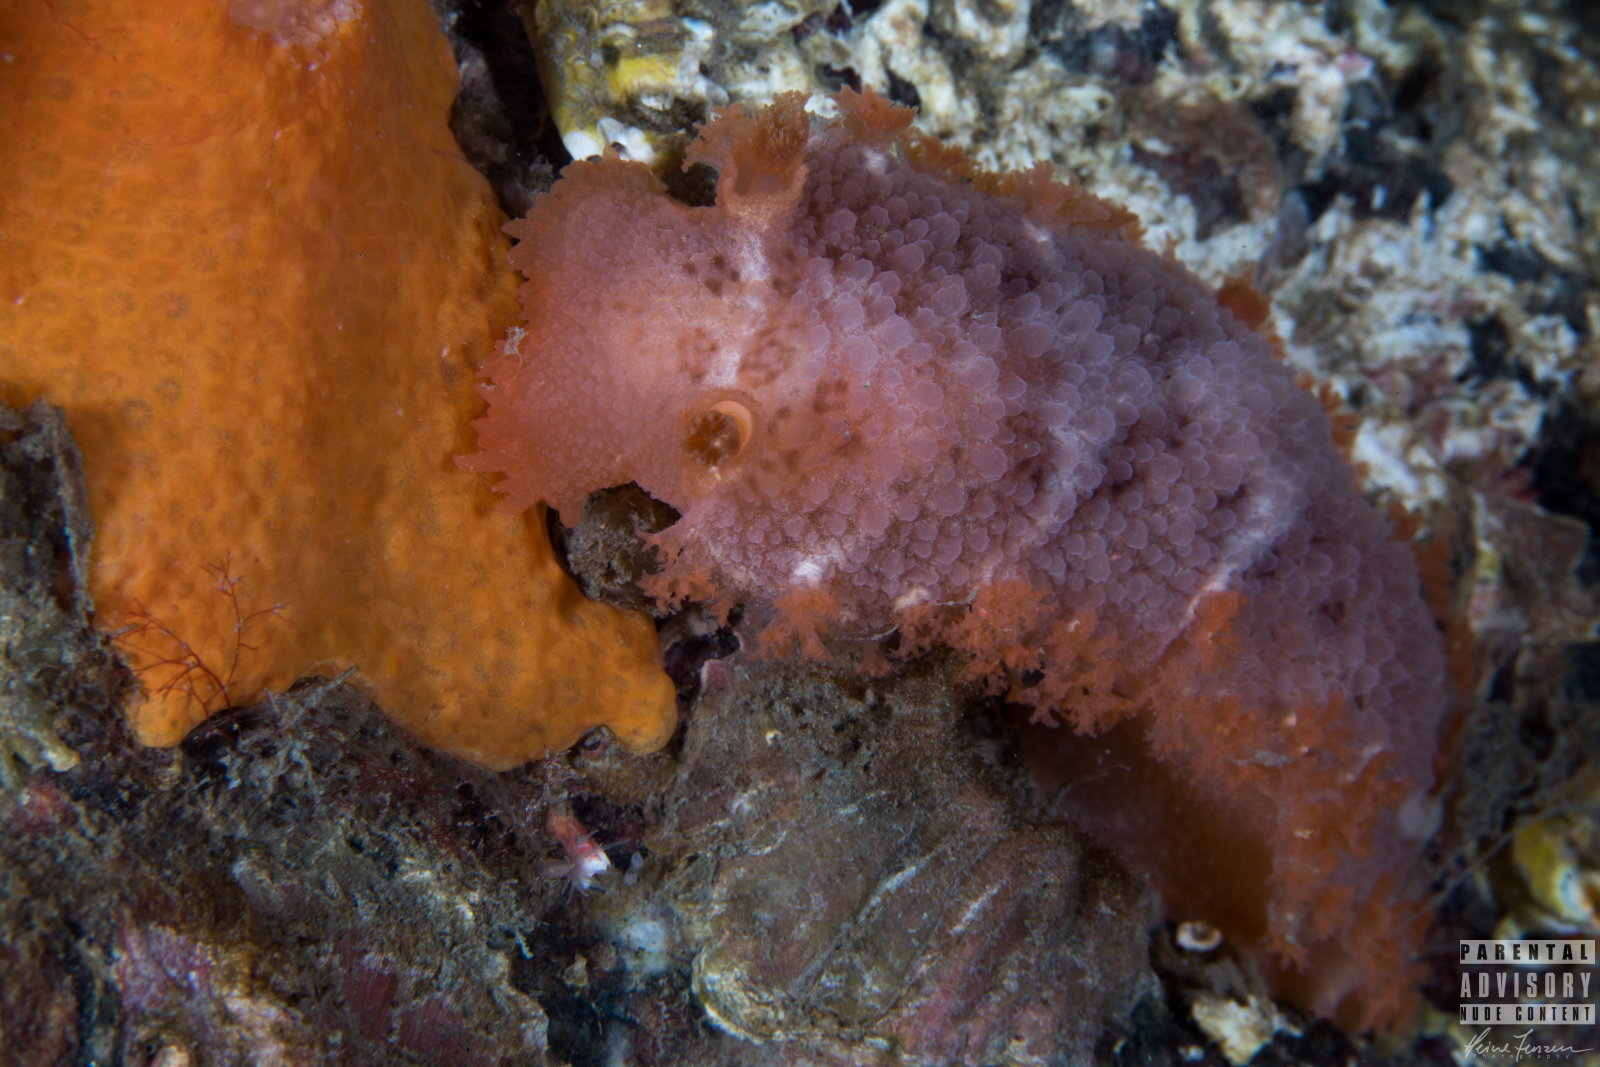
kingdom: Animalia
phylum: Mollusca
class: Gastropoda
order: Nudibranchia
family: Tritoniidae
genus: Tritonia
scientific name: Tritonia hombergii
